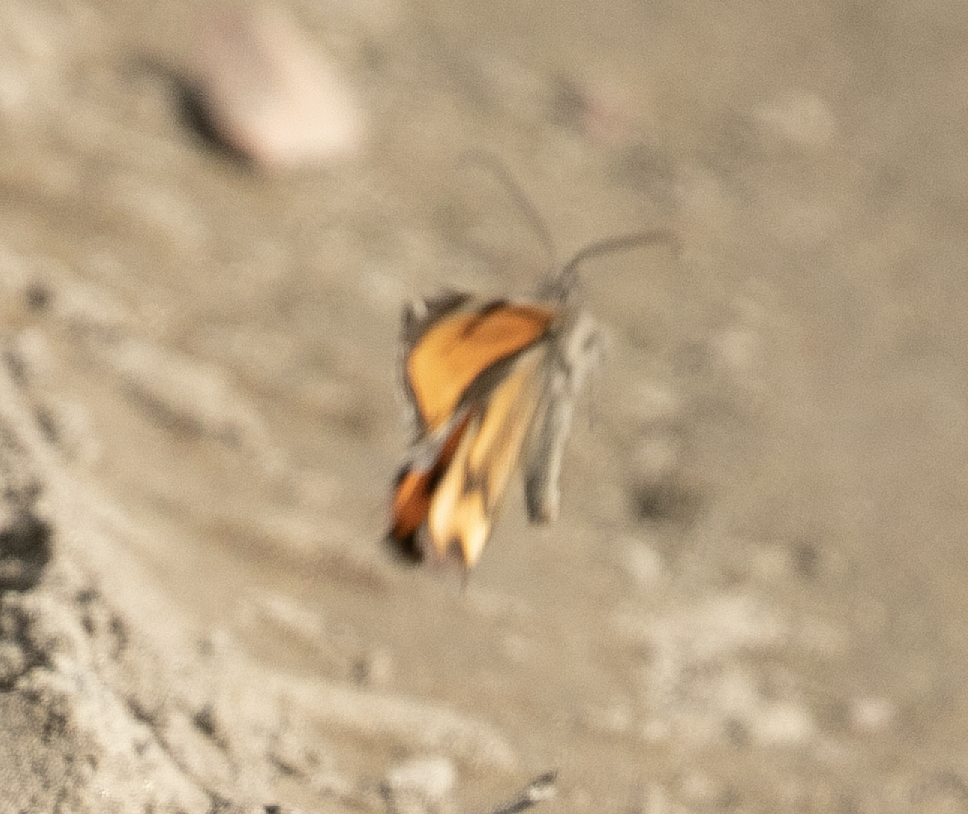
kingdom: Animalia
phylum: Arthropoda
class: Insecta
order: Lepidoptera
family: Geometridae
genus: Archiearis
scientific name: Archiearis notha
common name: Light orange underwing
